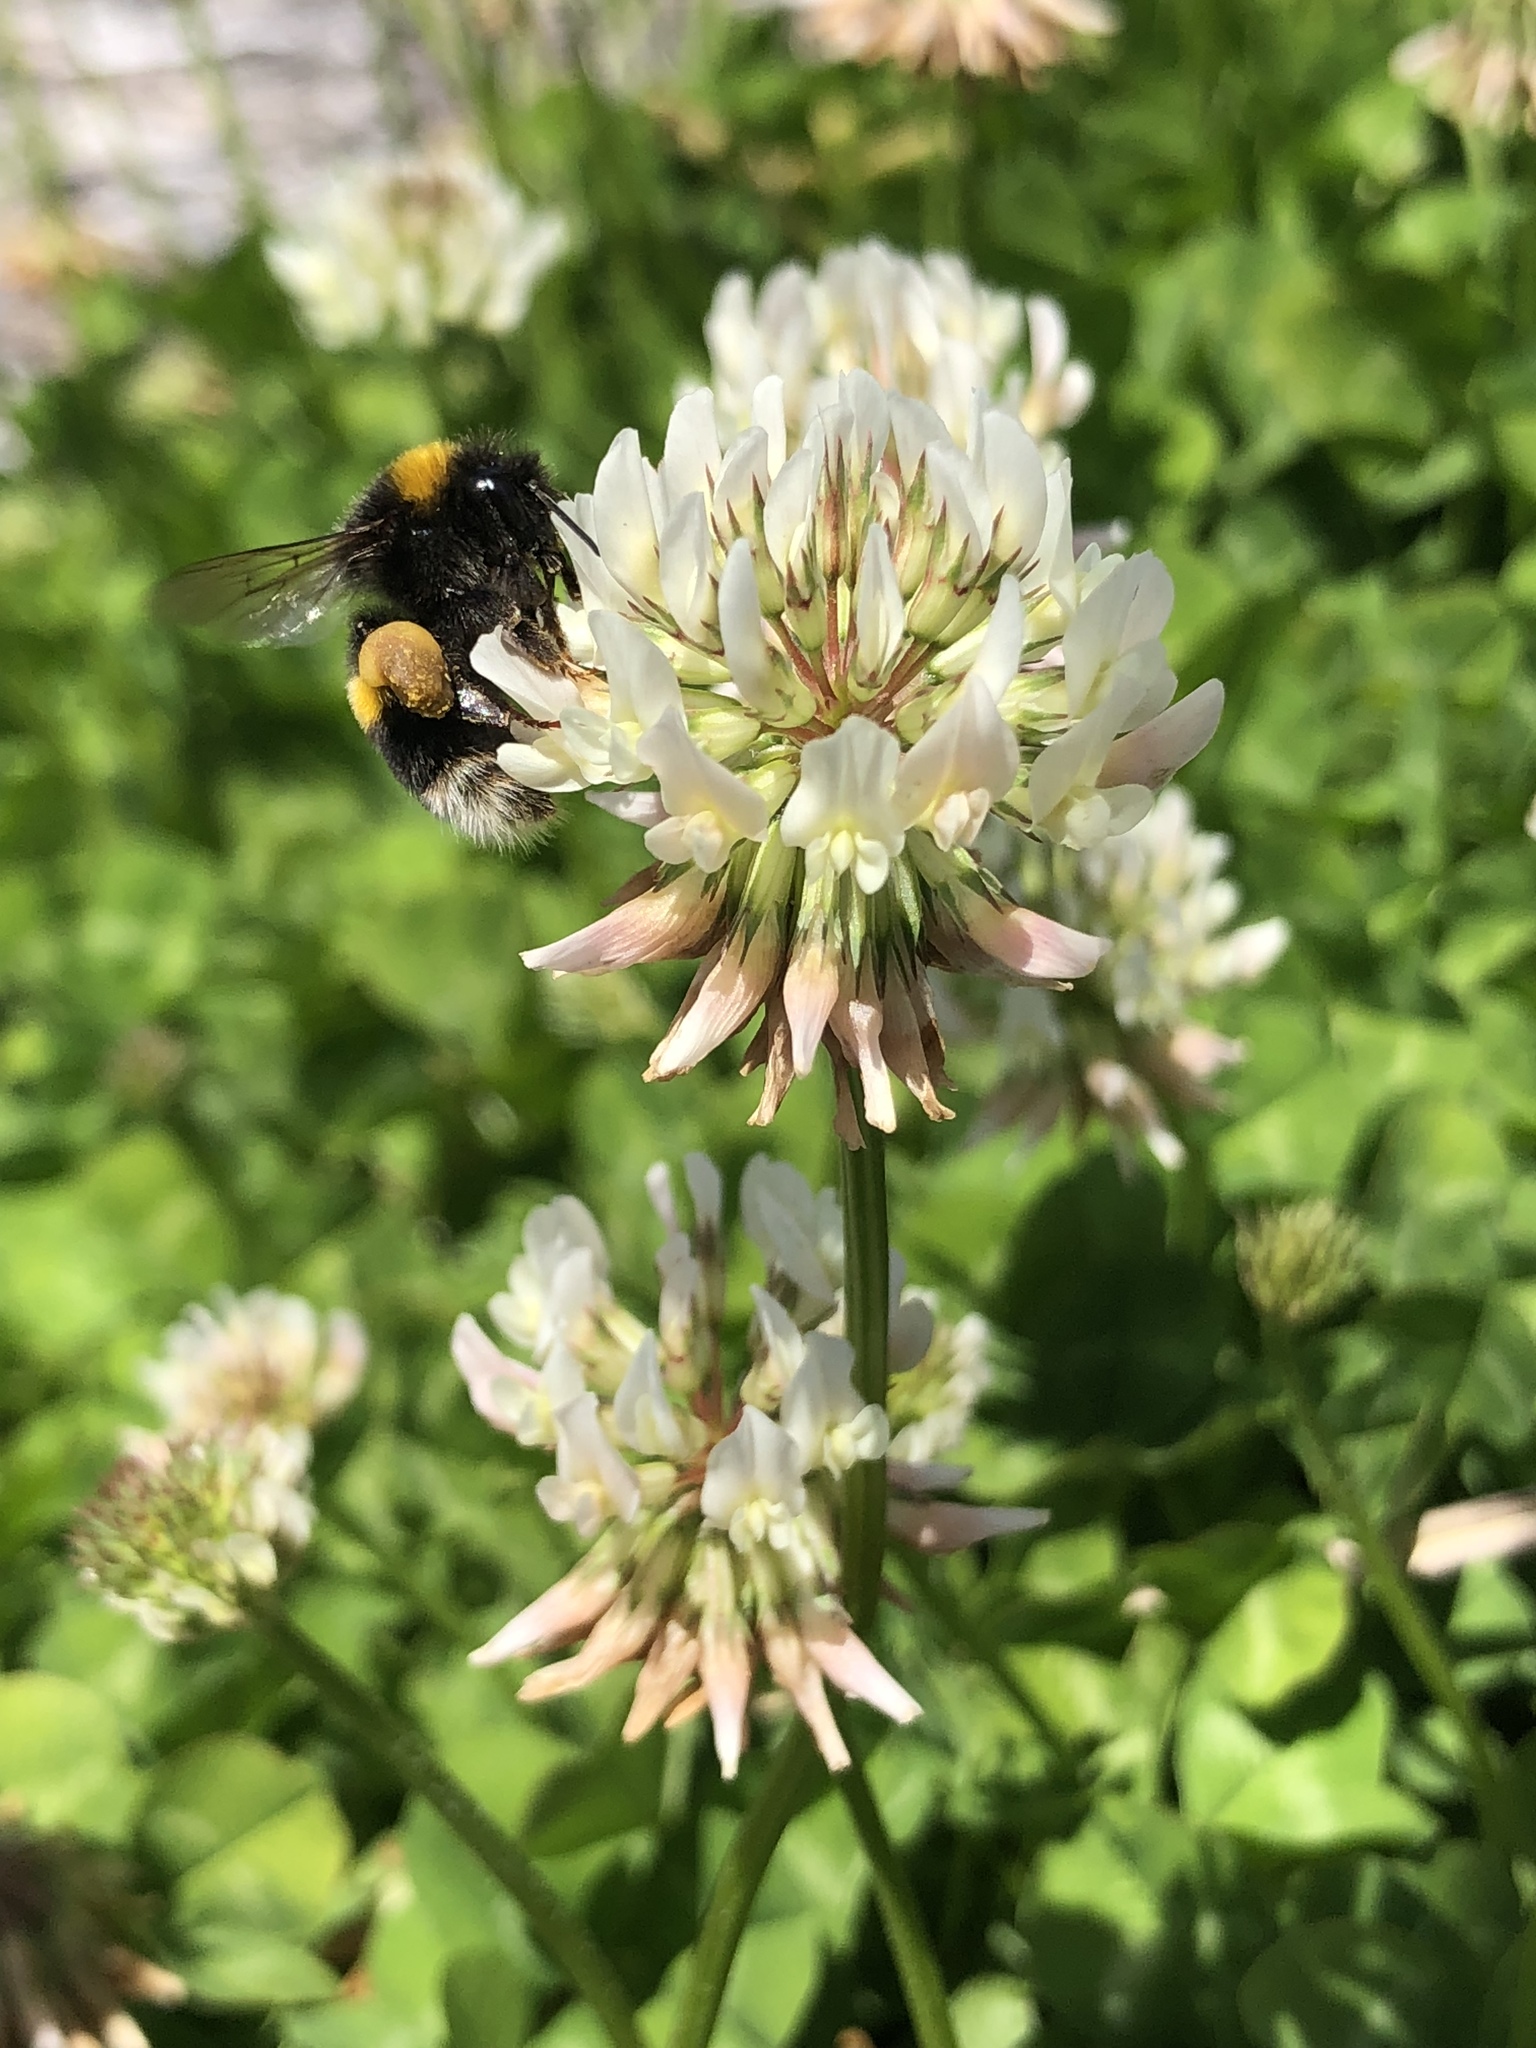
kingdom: Animalia
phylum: Arthropoda
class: Insecta
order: Hymenoptera
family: Apidae
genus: Bombus
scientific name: Bombus terrestris
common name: Buff-tailed bumblebee
